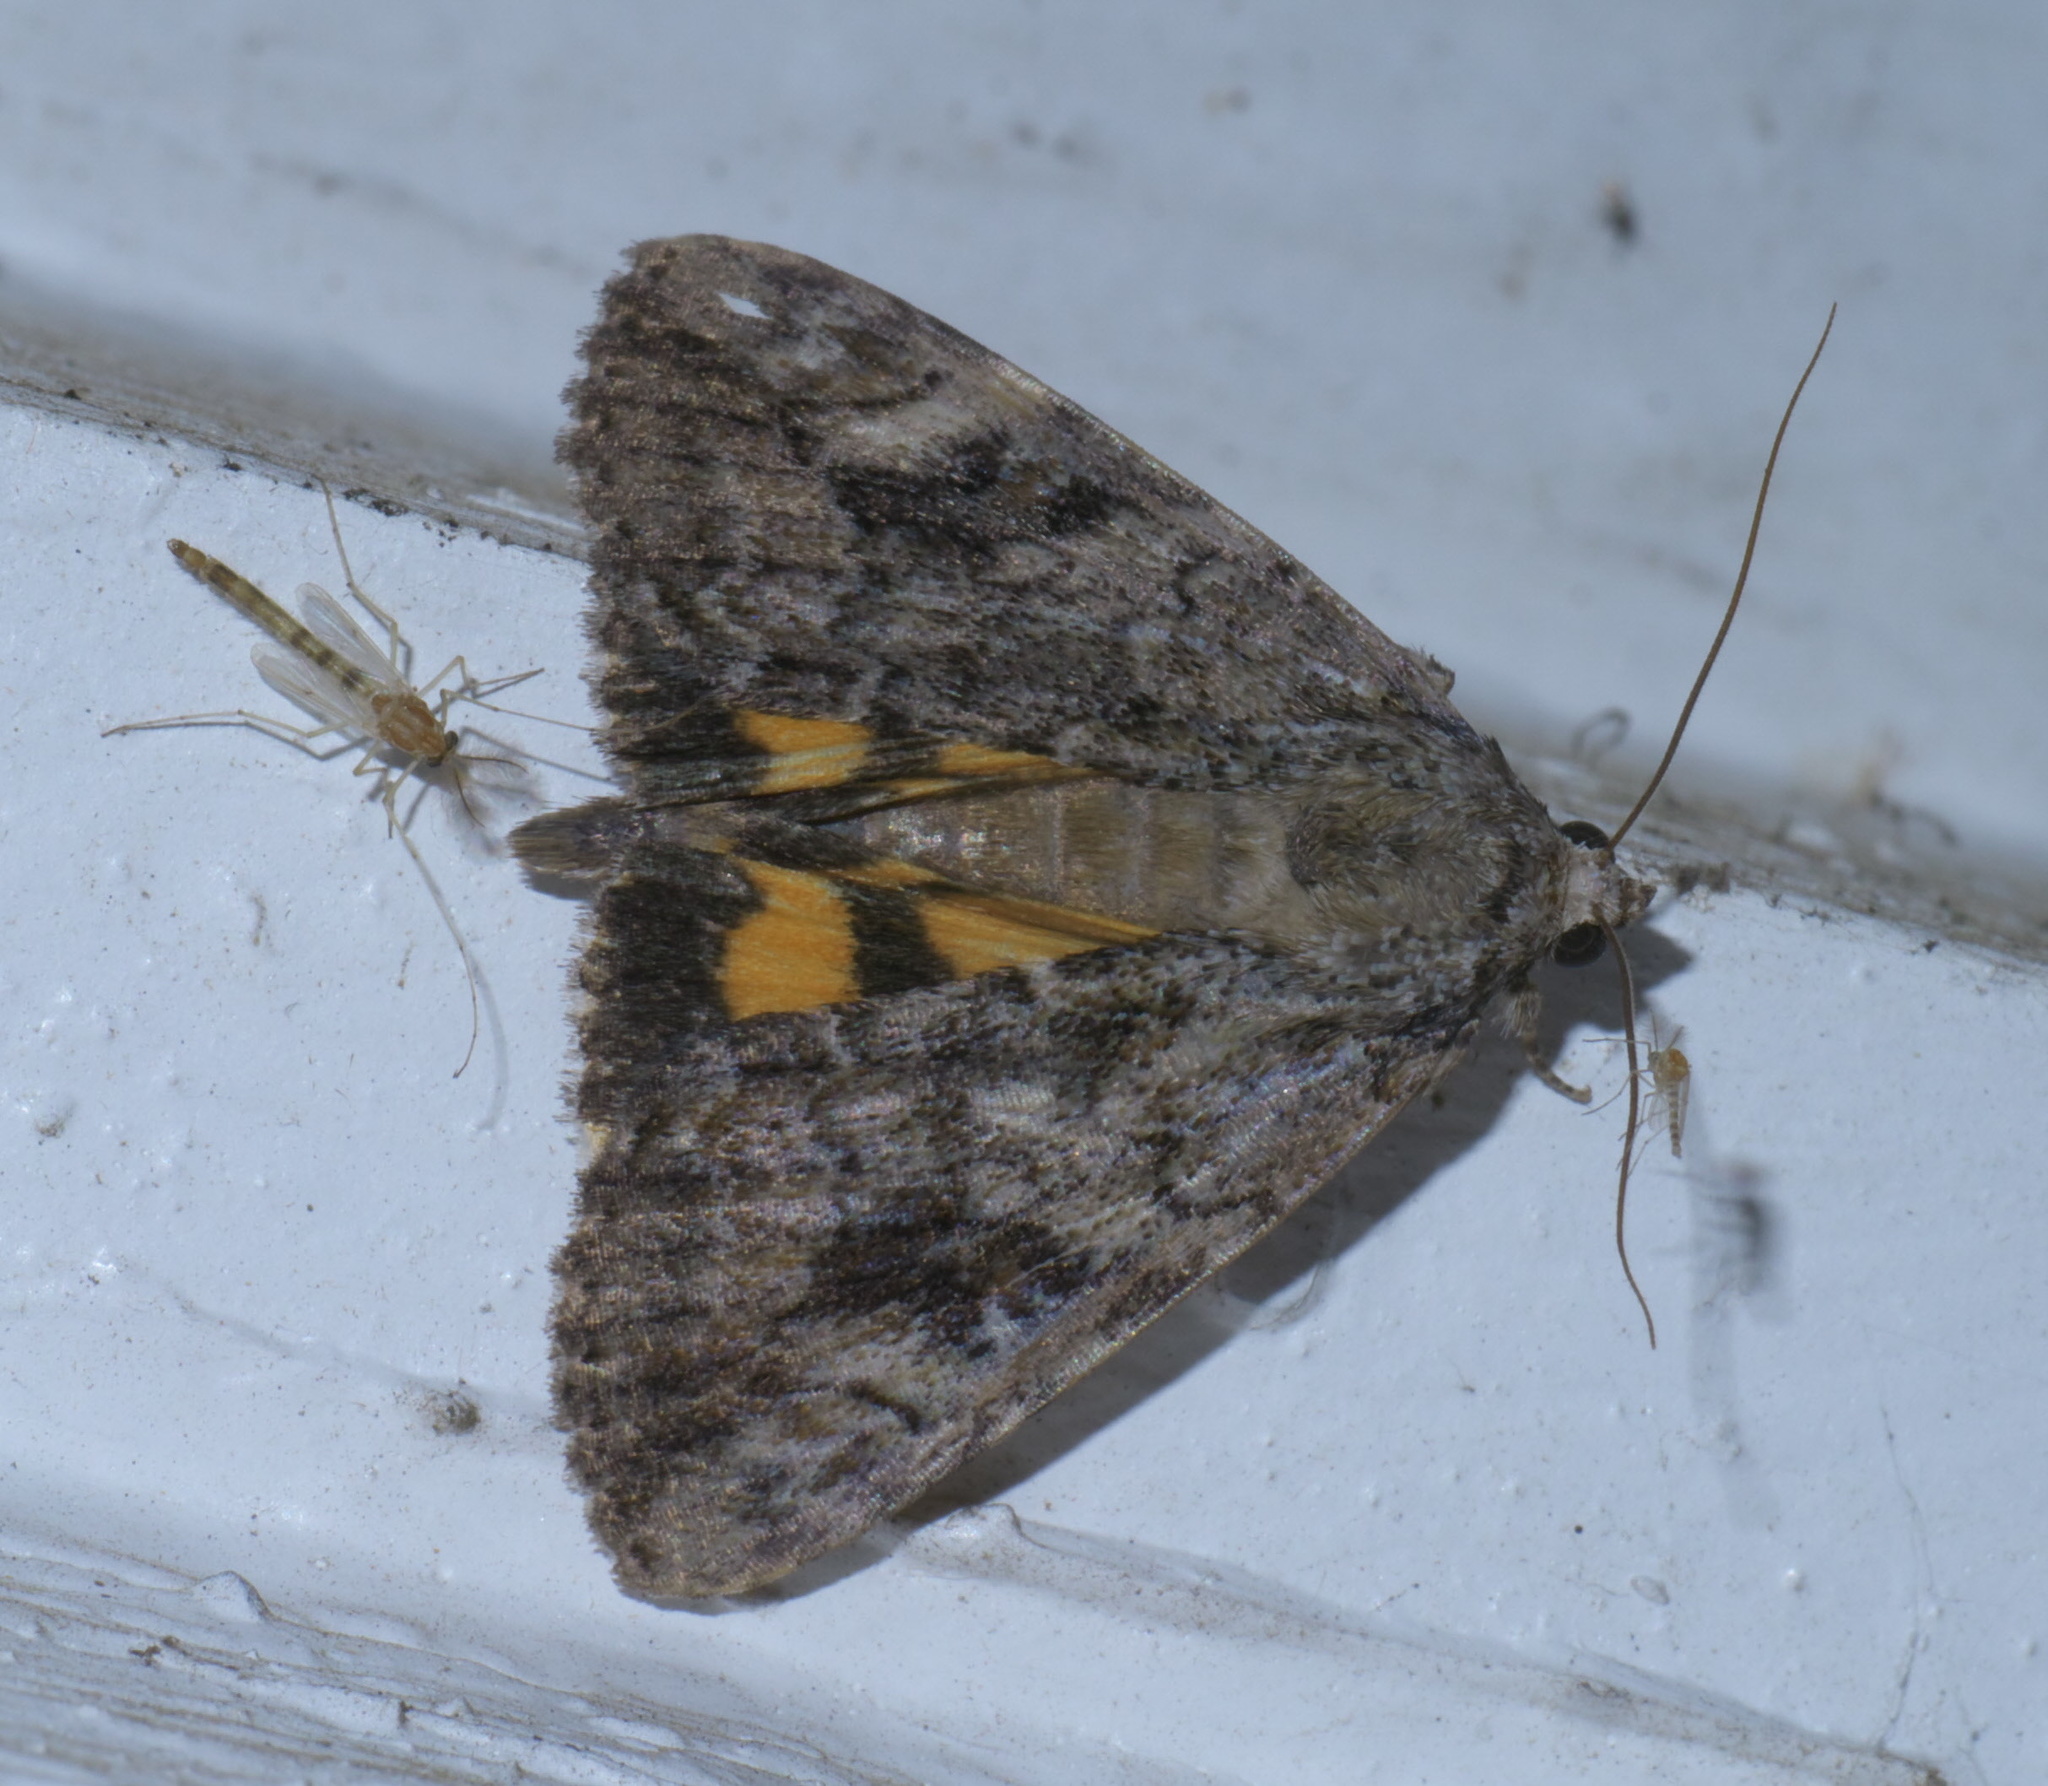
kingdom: Animalia
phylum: Arthropoda
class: Insecta
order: Lepidoptera
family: Erebidae
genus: Catocala
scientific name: Catocala micronympha
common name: Little nymph underwing
